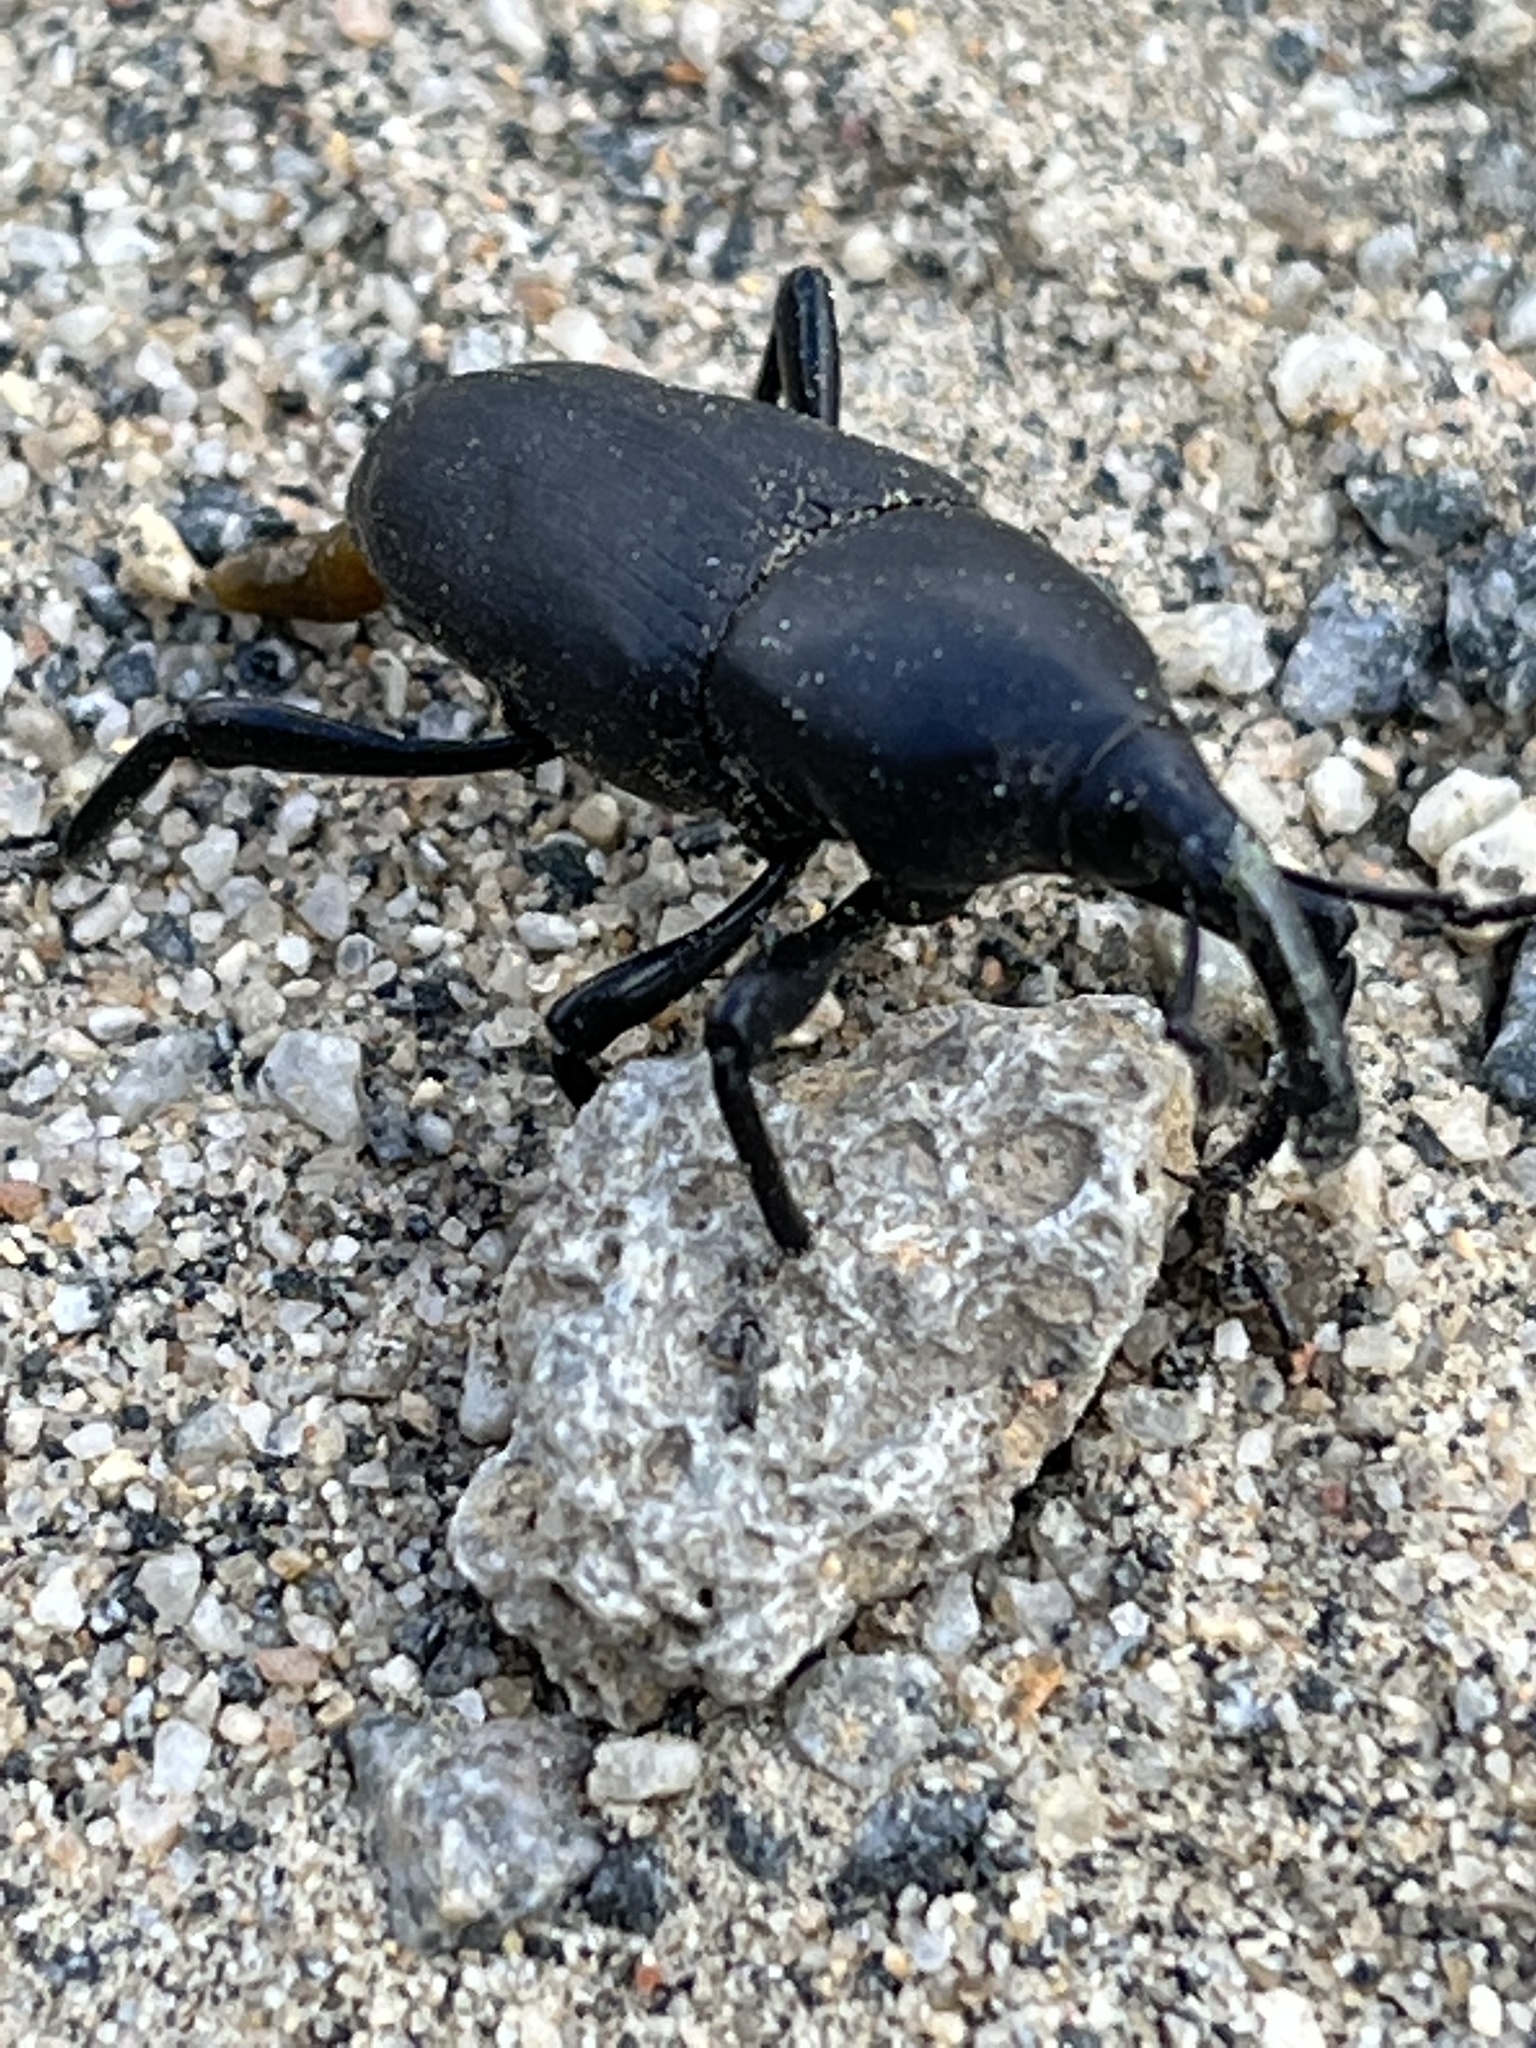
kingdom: Animalia
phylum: Arthropoda
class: Insecta
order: Coleoptera
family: Dryophthoridae
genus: Cactophagus
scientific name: Cactophagus spinolae
